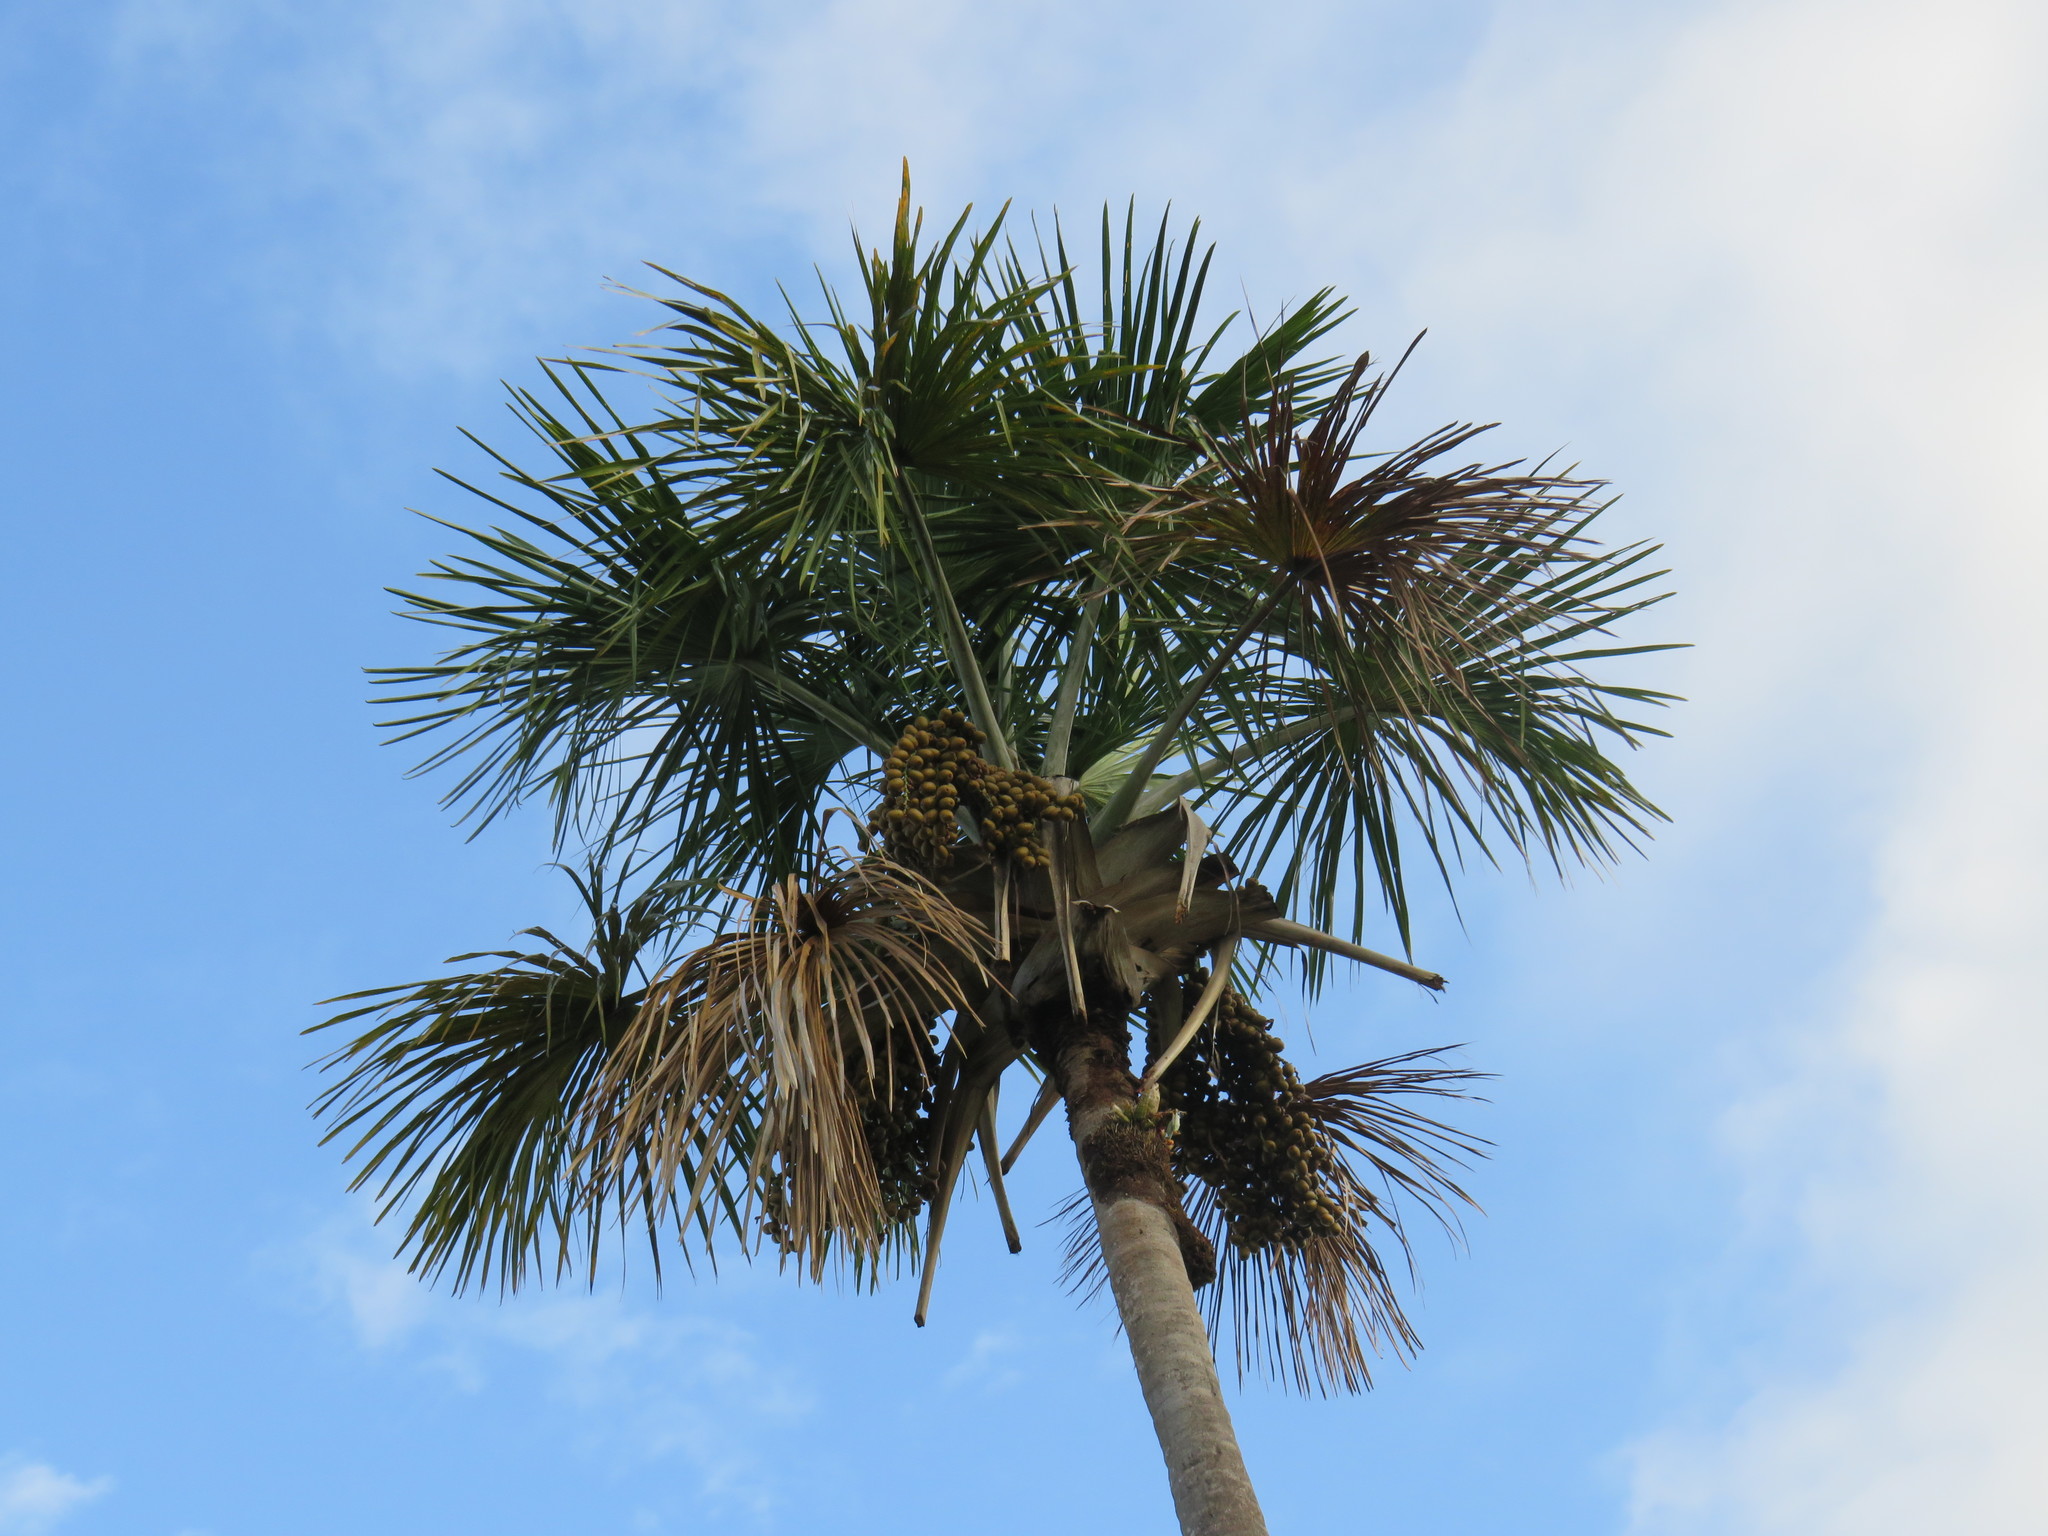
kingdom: Plantae
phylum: Tracheophyta
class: Liliopsida
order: Arecales
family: Arecaceae
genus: Mauritia
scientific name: Mauritia flexuosa
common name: Tree-of-life
